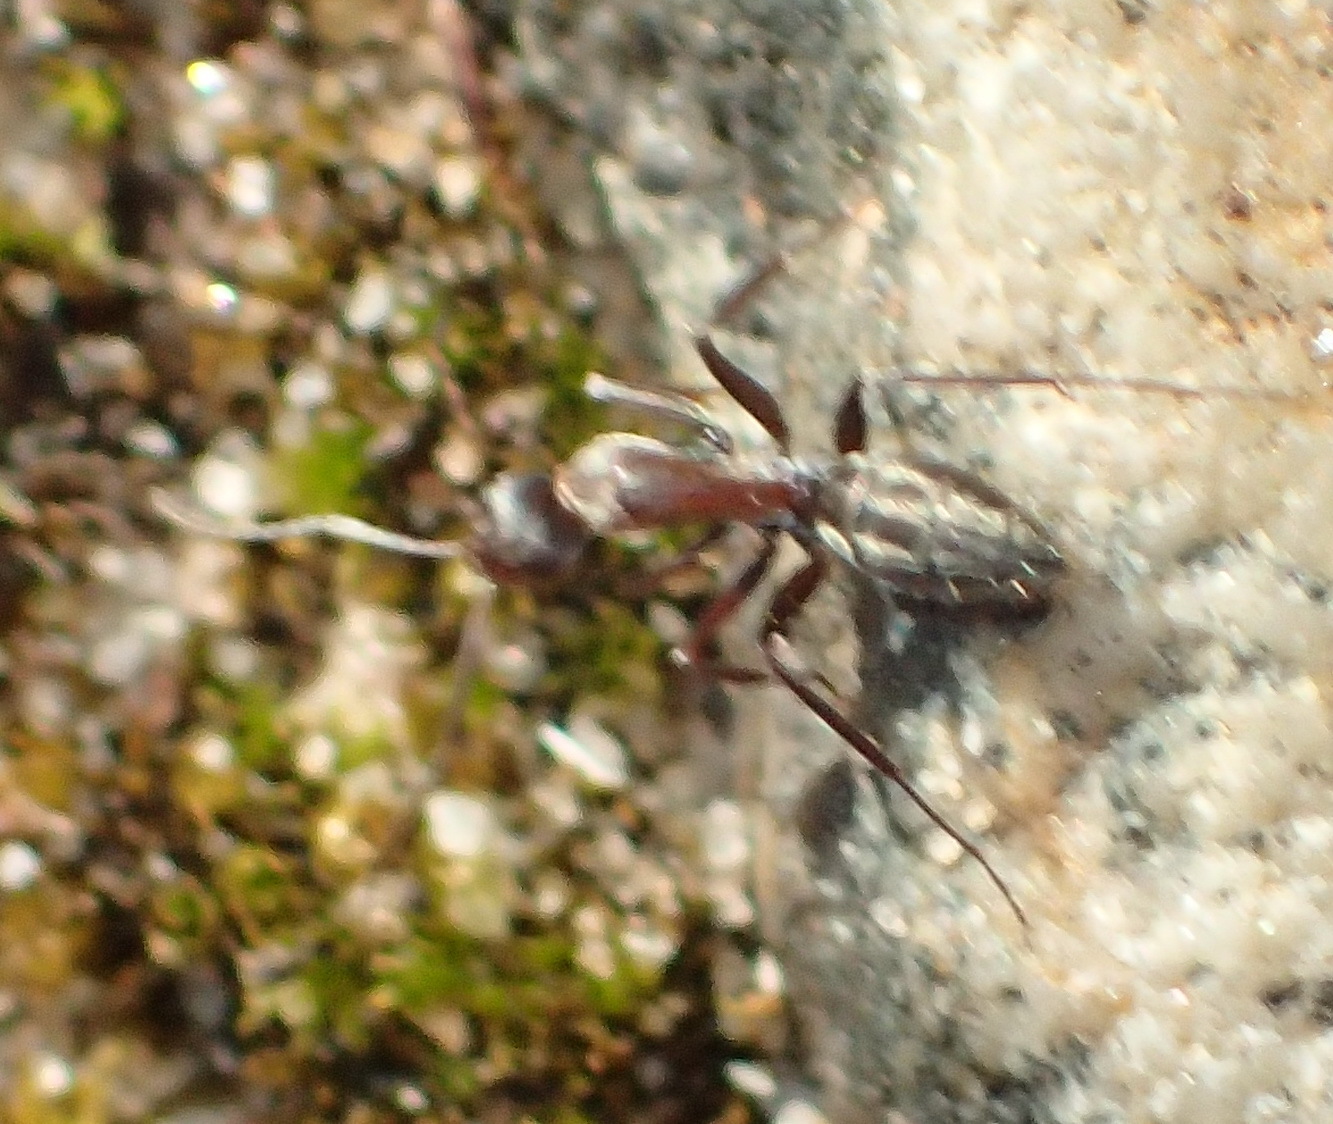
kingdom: Animalia
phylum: Arthropoda
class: Insecta
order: Hymenoptera
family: Formicidae
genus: Camponotus
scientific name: Camponotus vestitus
